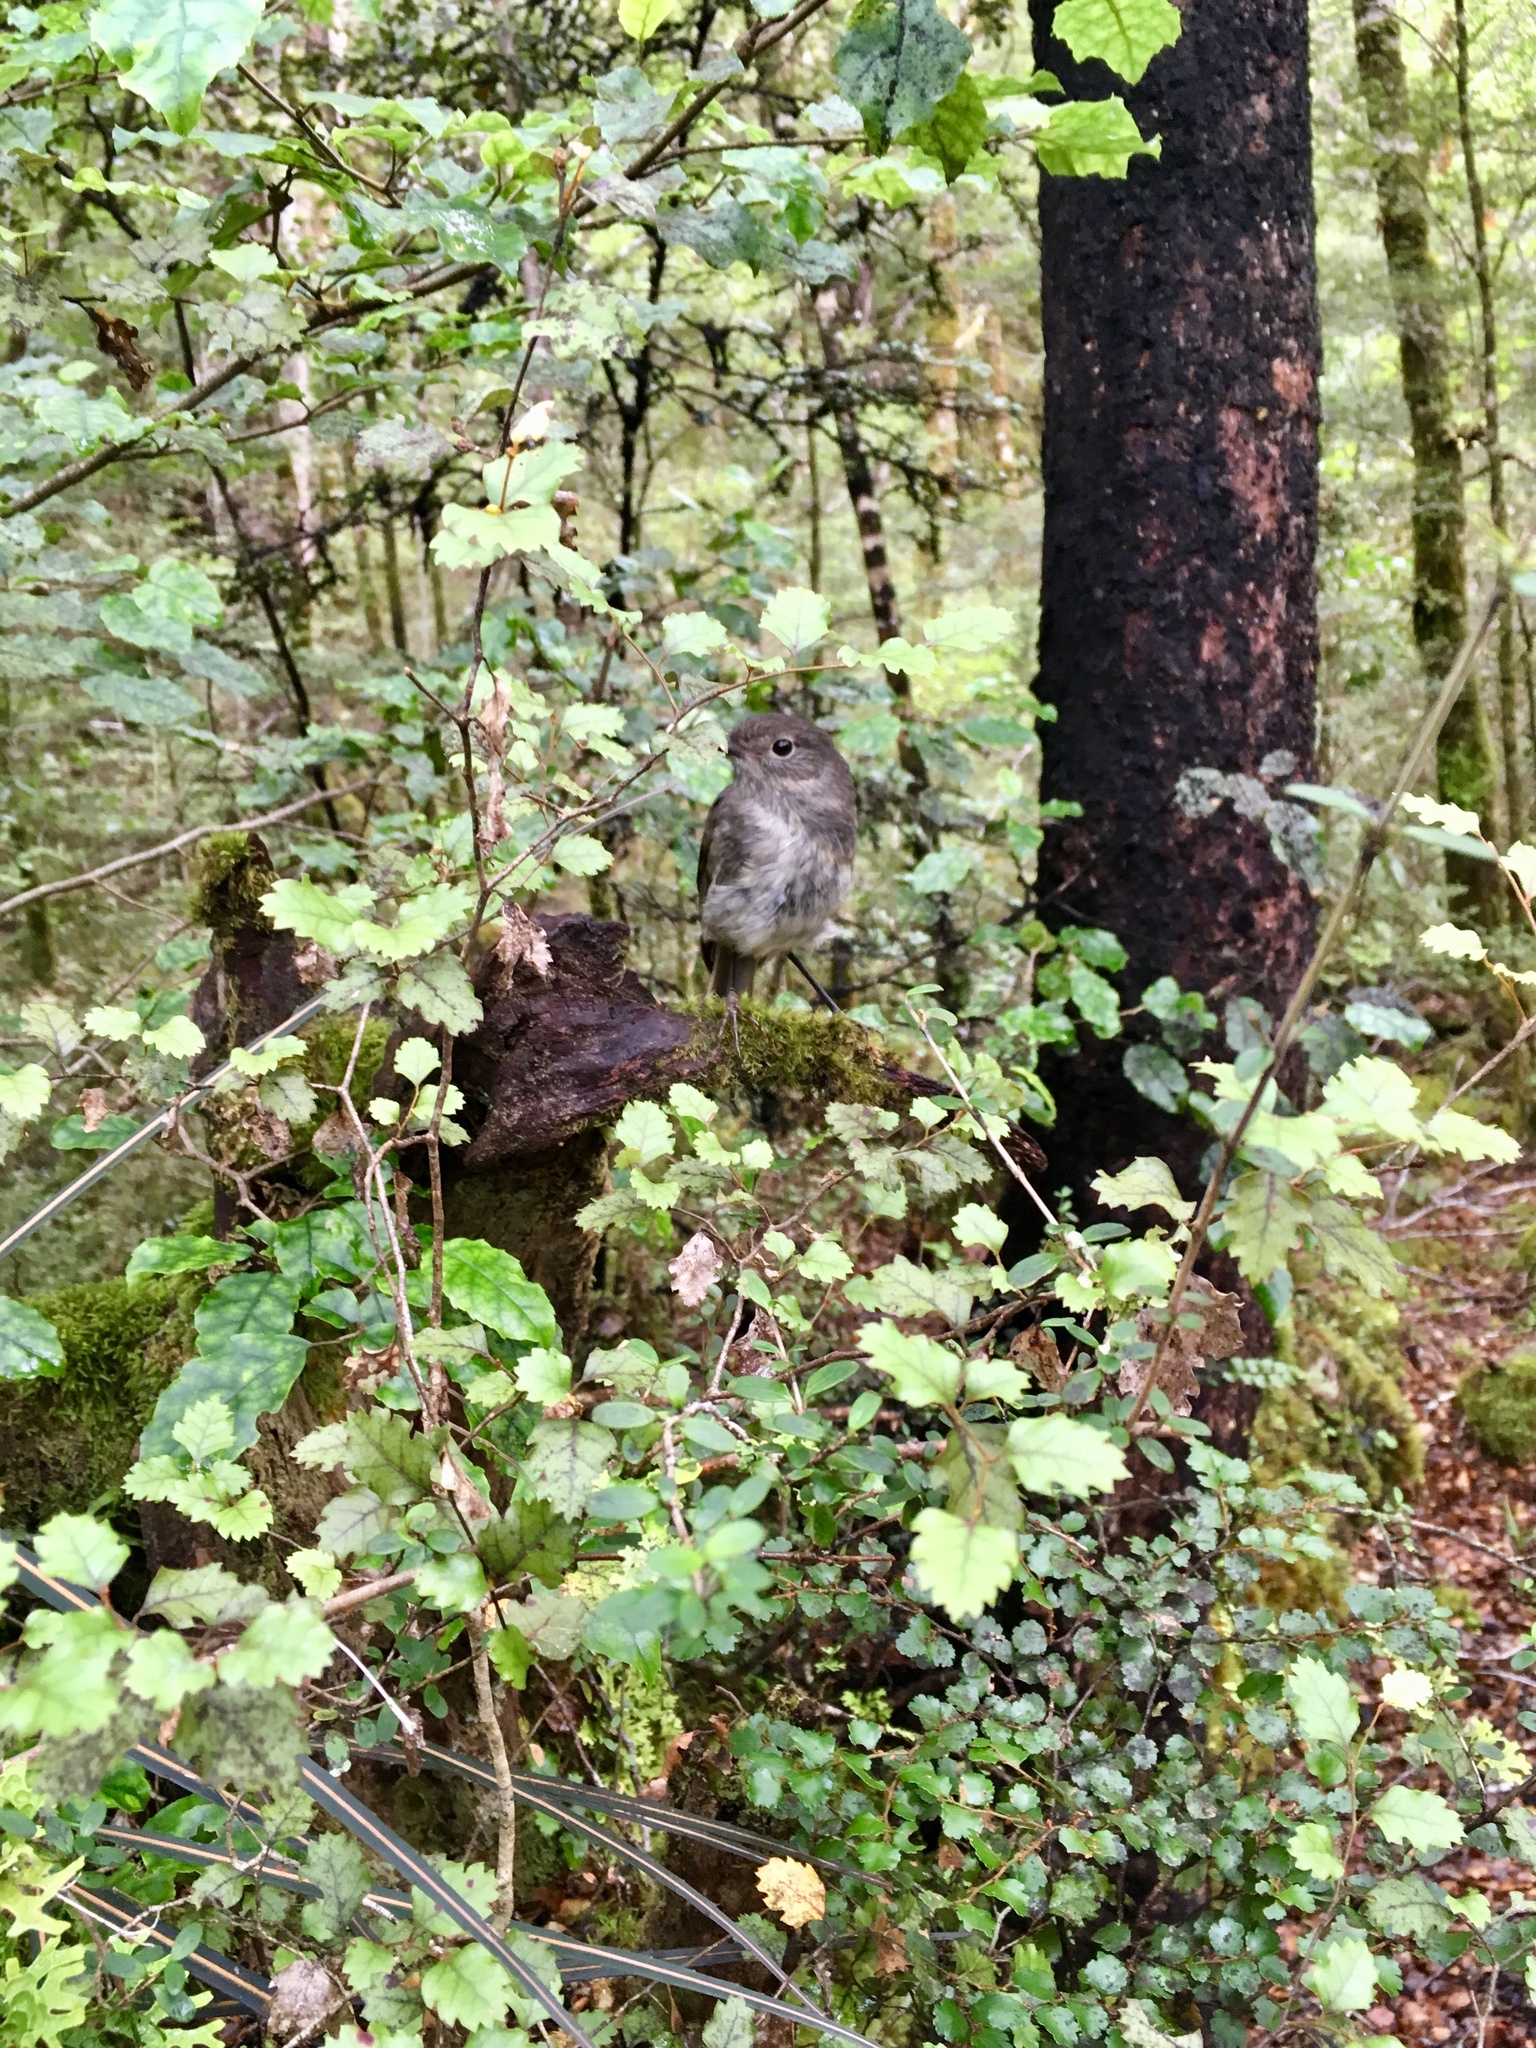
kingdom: Animalia
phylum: Chordata
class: Aves
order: Passeriformes
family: Petroicidae
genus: Petroica
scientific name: Petroica australis
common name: New zealand robin
